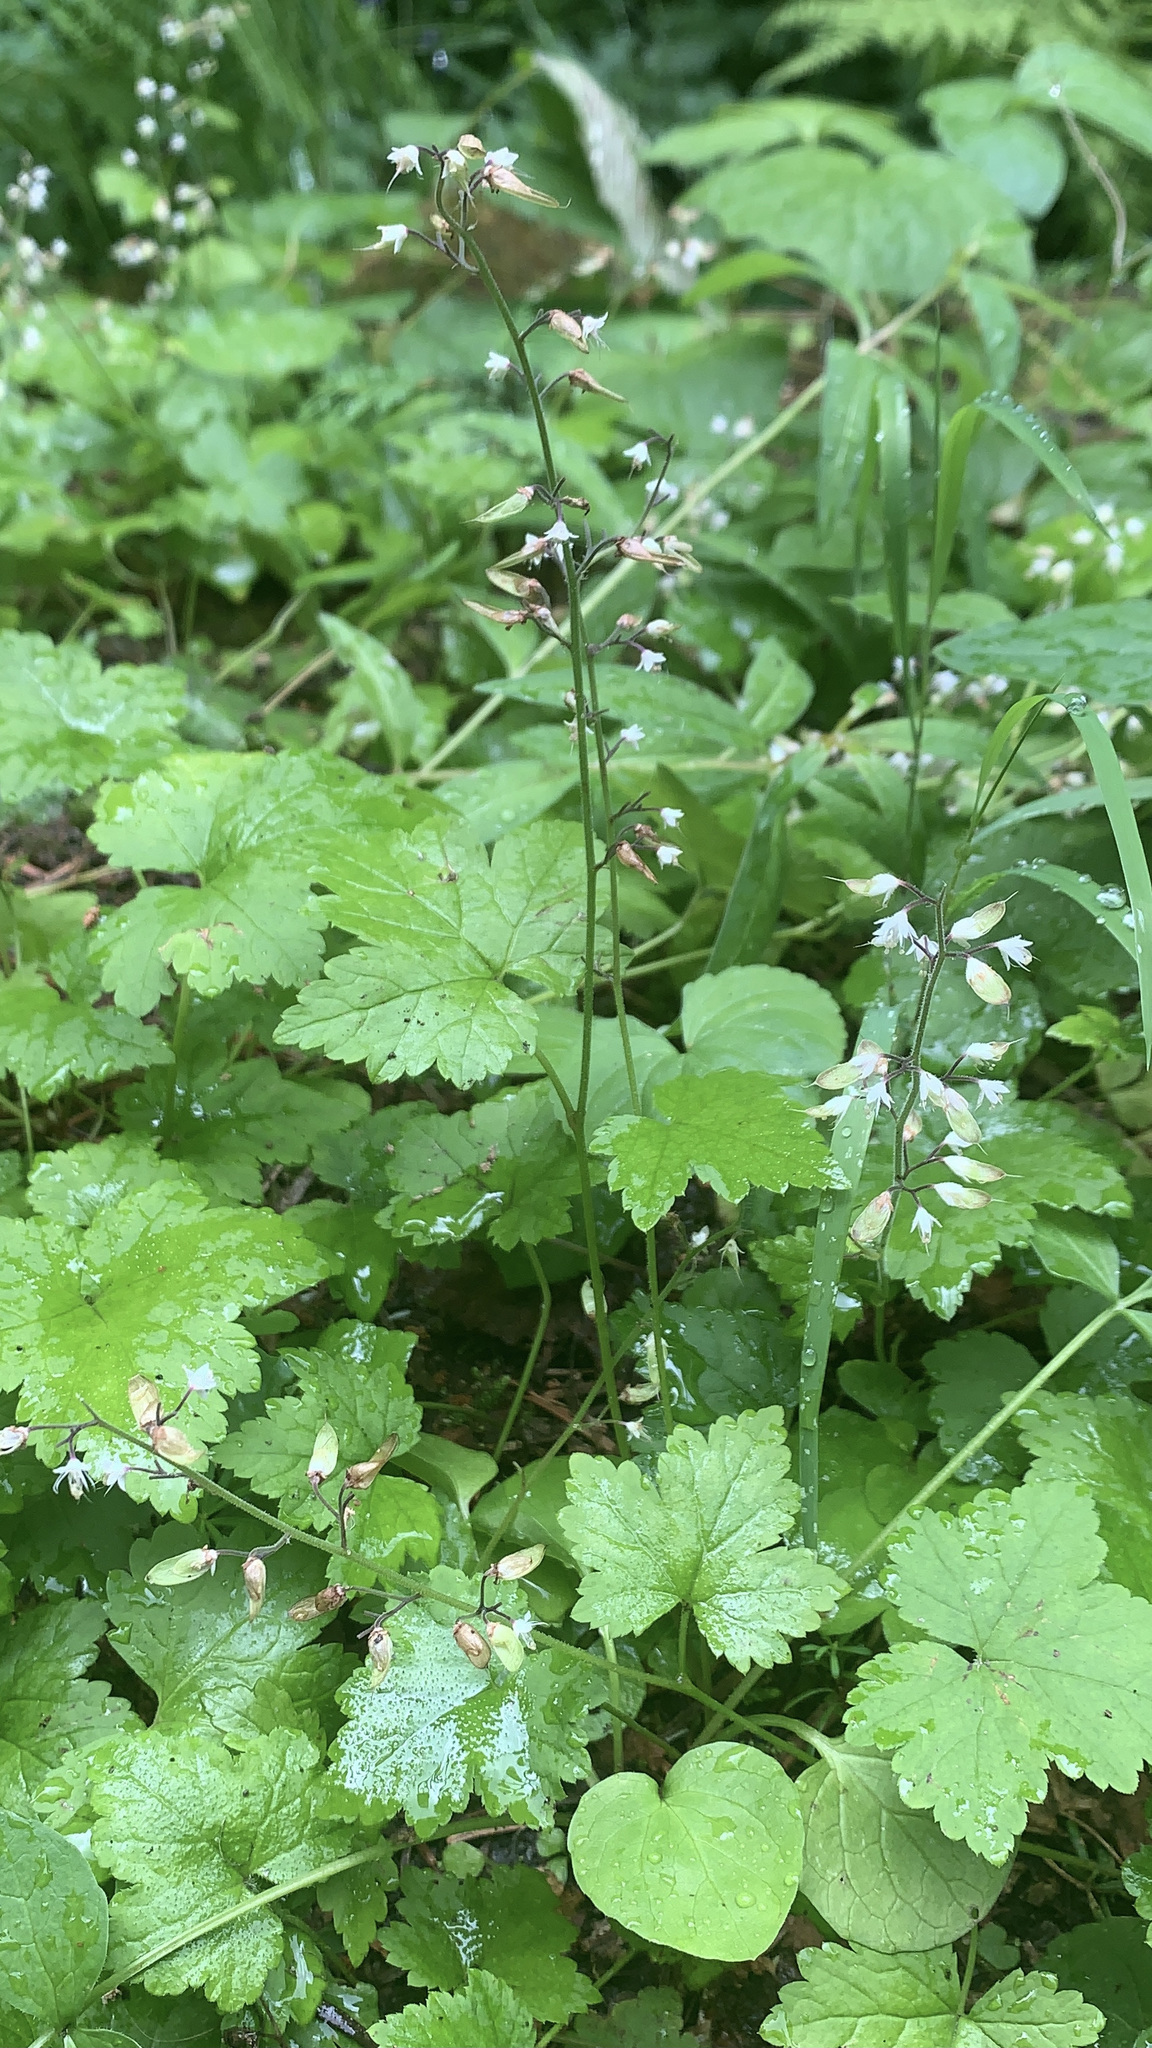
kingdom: Plantae
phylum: Tracheophyta
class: Magnoliopsida
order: Saxifragales
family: Saxifragaceae
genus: Tiarella
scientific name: Tiarella trifoliata
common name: Sugar-scoop
